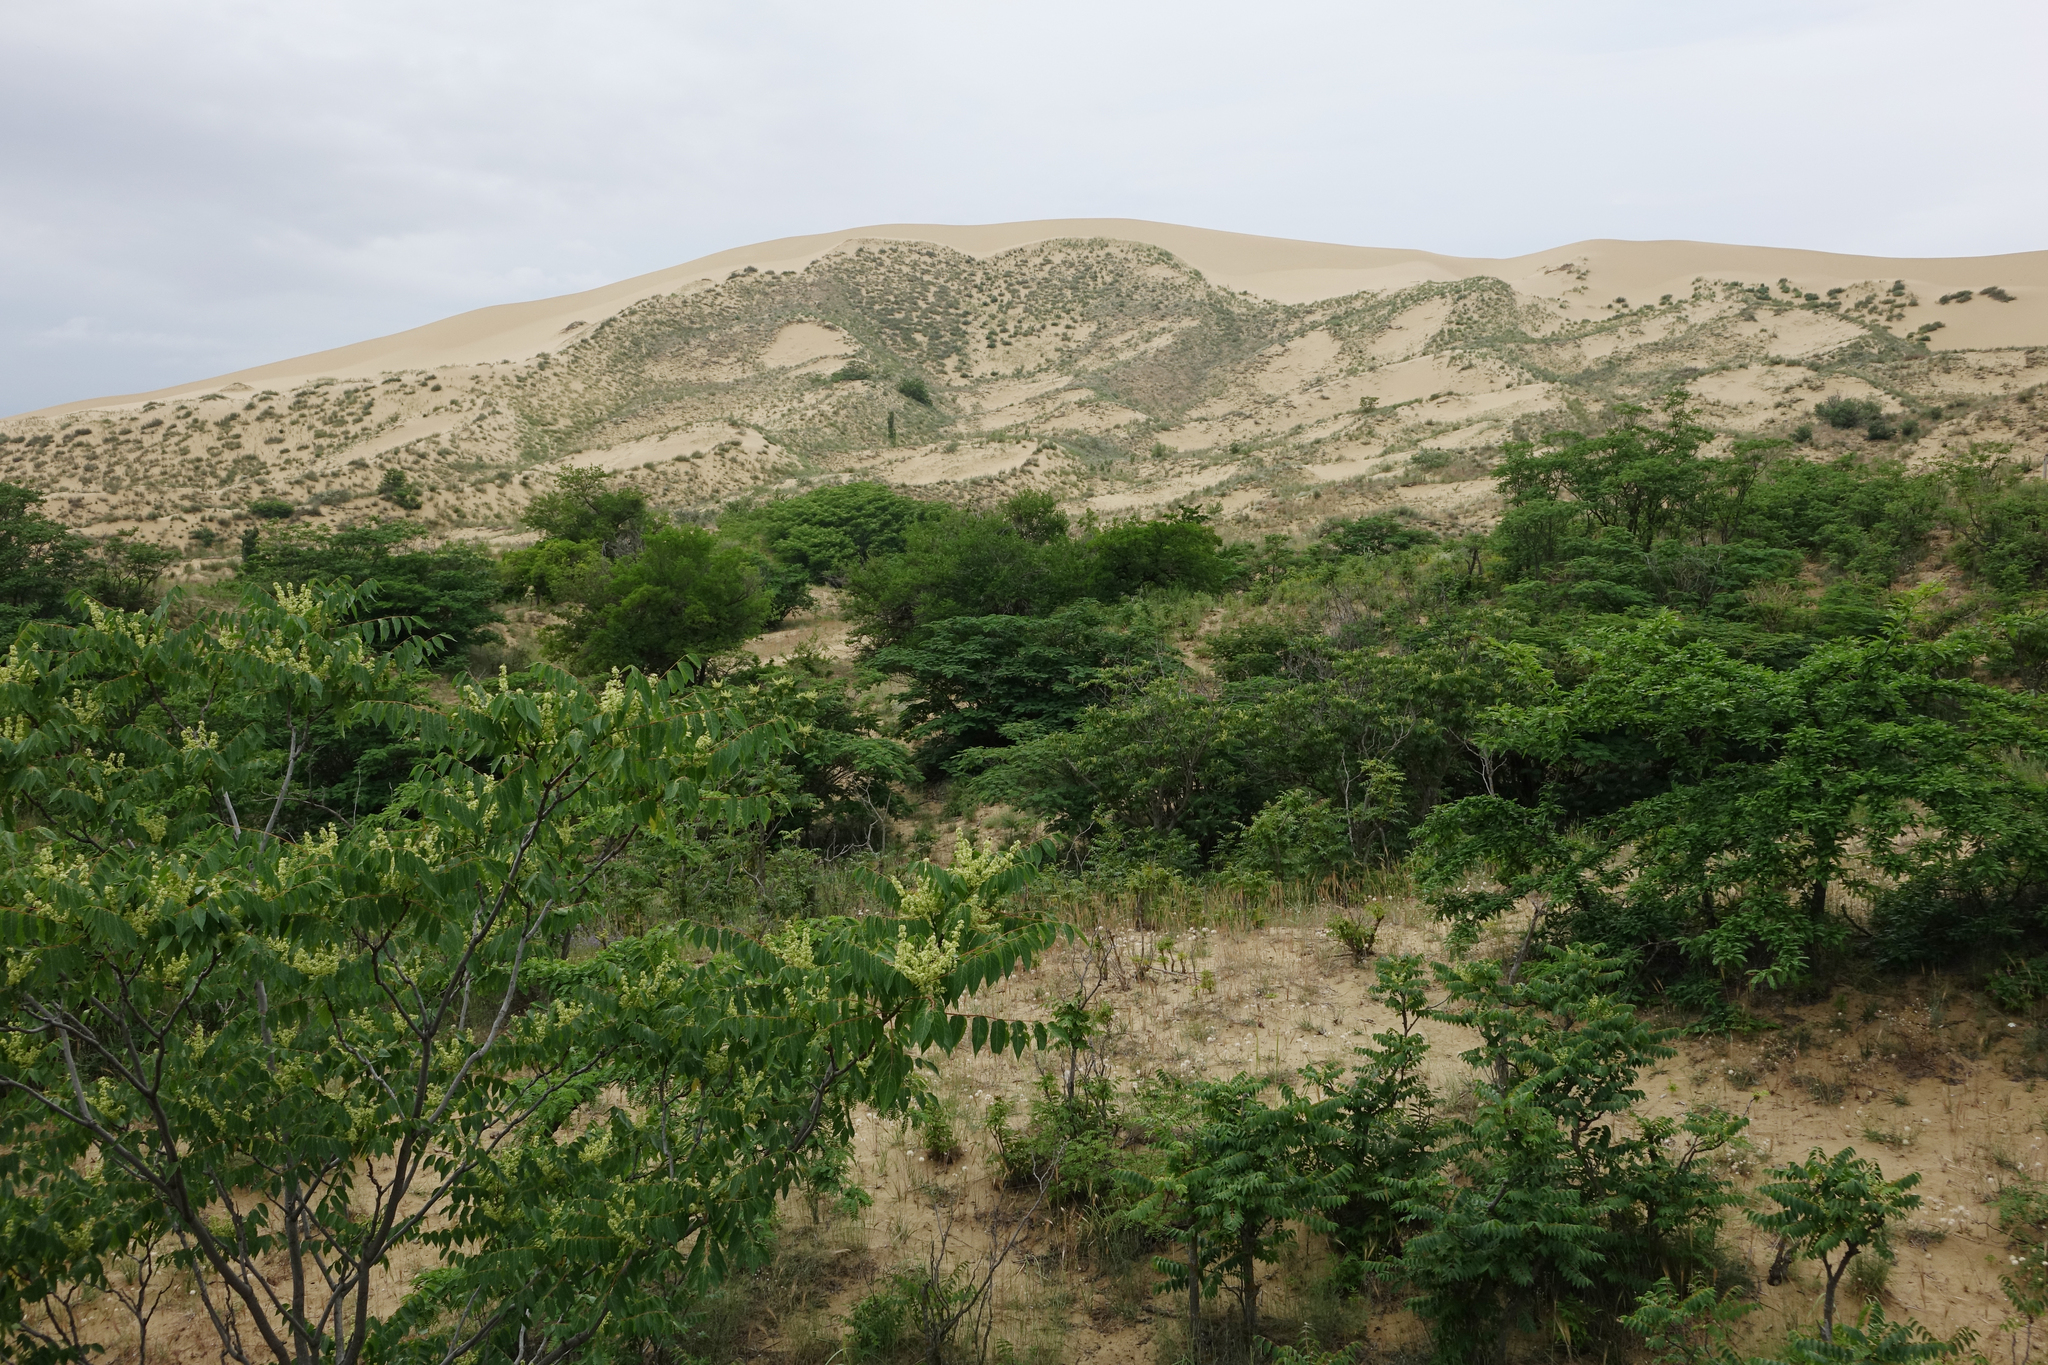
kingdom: Plantae
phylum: Tracheophyta
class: Magnoliopsida
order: Sapindales
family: Simaroubaceae
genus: Ailanthus
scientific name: Ailanthus altissima
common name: Tree-of-heaven
